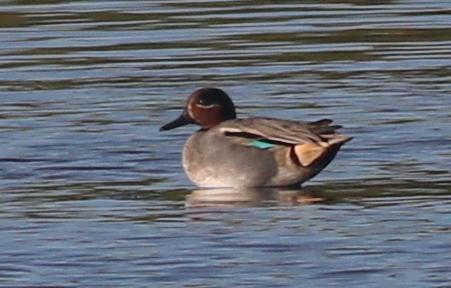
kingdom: Animalia
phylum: Chordata
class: Aves
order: Anseriformes
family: Anatidae
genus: Anas
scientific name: Anas crecca
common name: Eurasian teal
